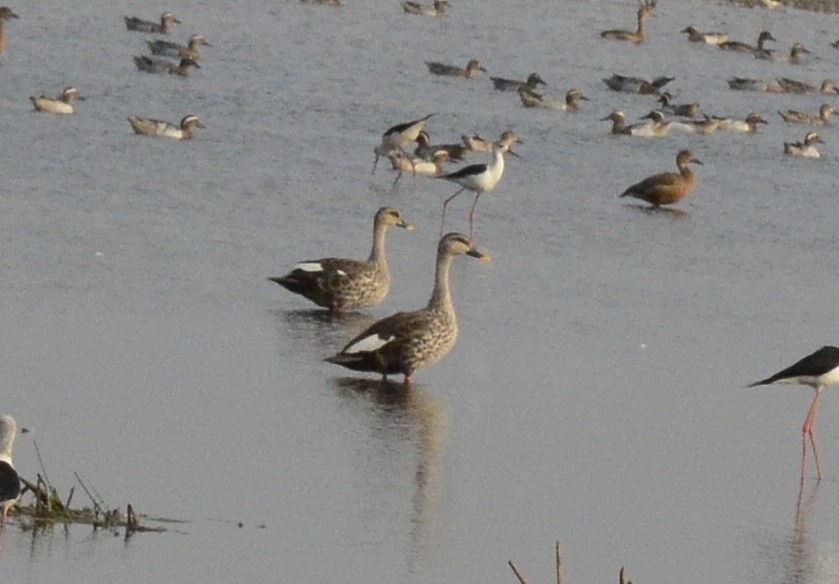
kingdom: Animalia
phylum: Chordata
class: Aves
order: Anseriformes
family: Anatidae
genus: Anas
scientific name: Anas poecilorhyncha
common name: Indian spot-billed duck
